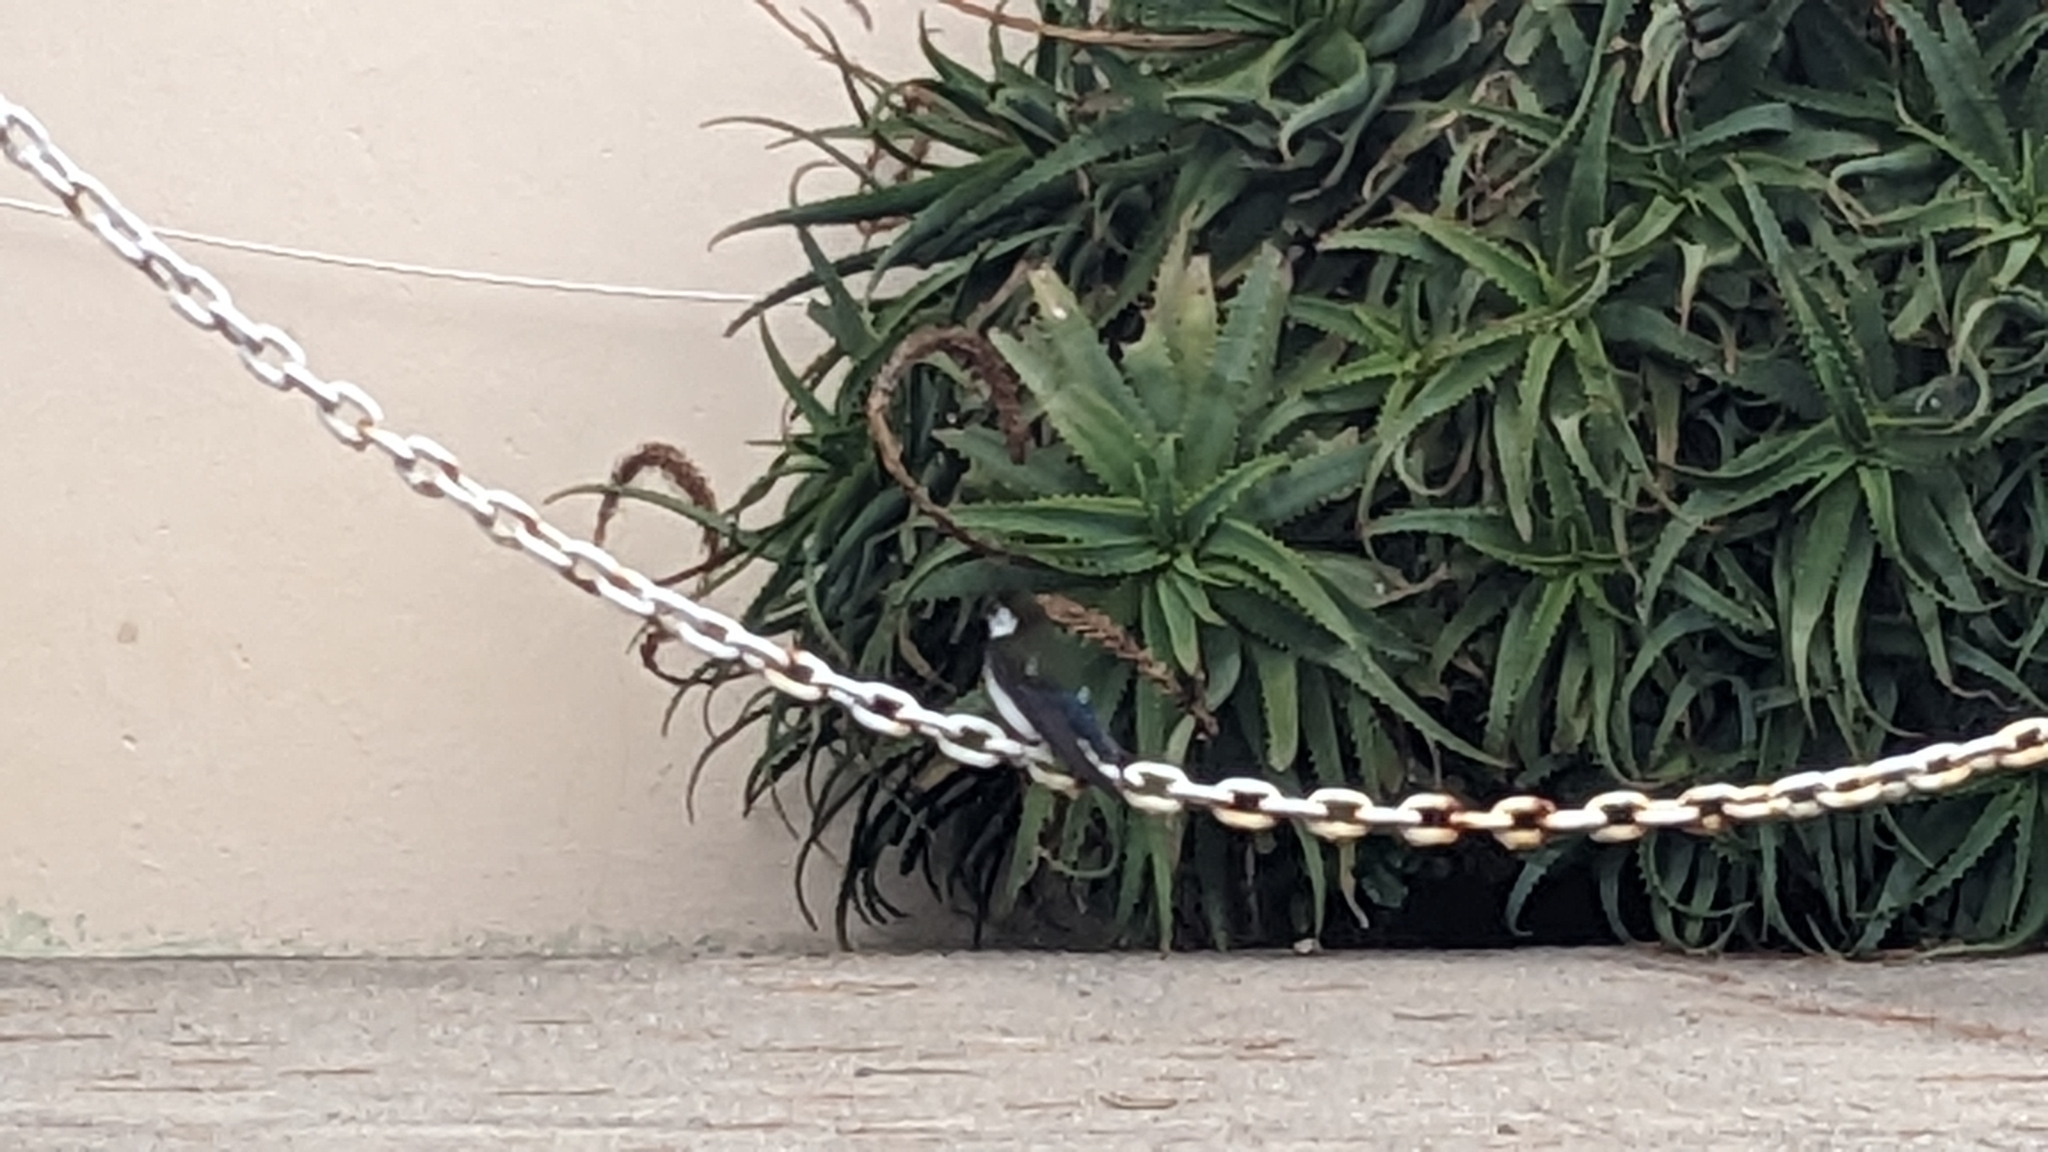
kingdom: Animalia
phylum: Chordata
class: Aves
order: Passeriformes
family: Hirundinidae
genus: Tachycineta
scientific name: Tachycineta thalassina
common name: Violet-green swallow
